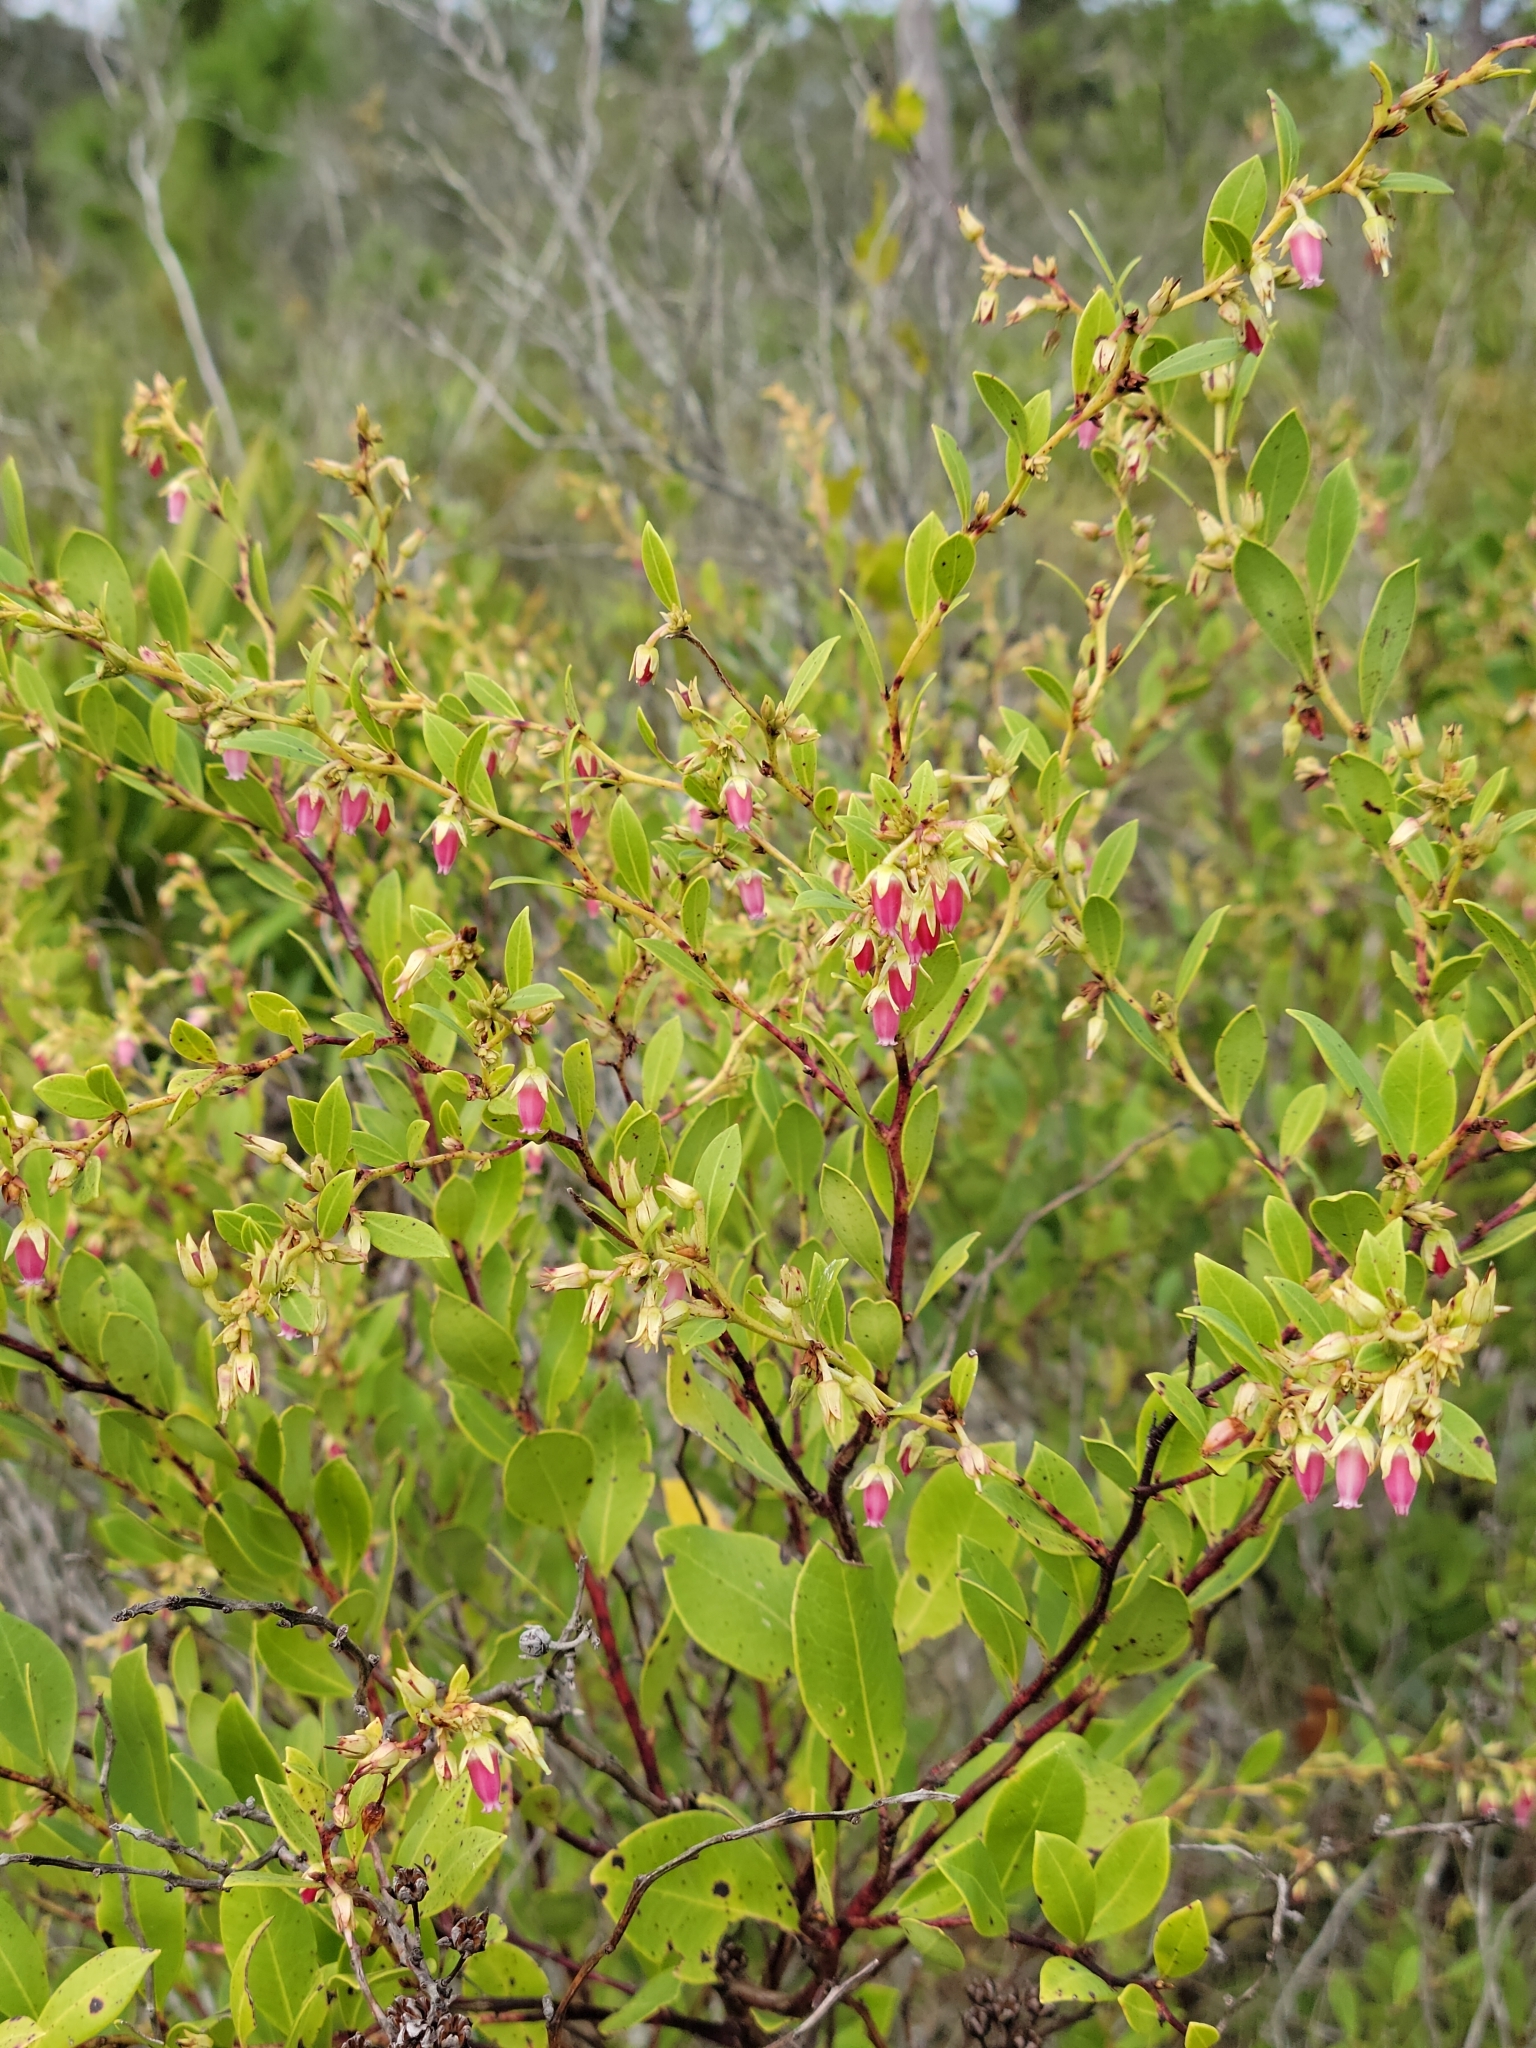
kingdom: Plantae
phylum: Tracheophyta
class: Magnoliopsida
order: Ericales
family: Ericaceae
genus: Lyonia
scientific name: Lyonia lucida
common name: Fetterbush
